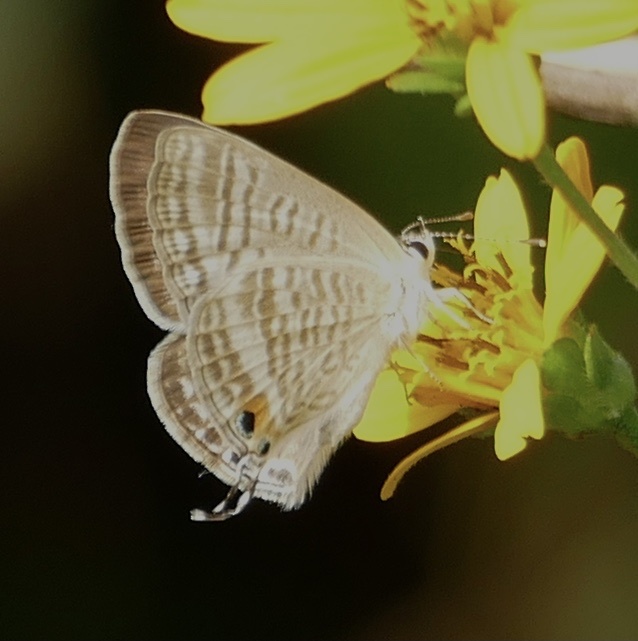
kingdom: Animalia
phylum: Arthropoda
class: Insecta
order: Lepidoptera
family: Lycaenidae
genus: Lampides
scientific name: Lampides boeticus
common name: Long-tailed blue
